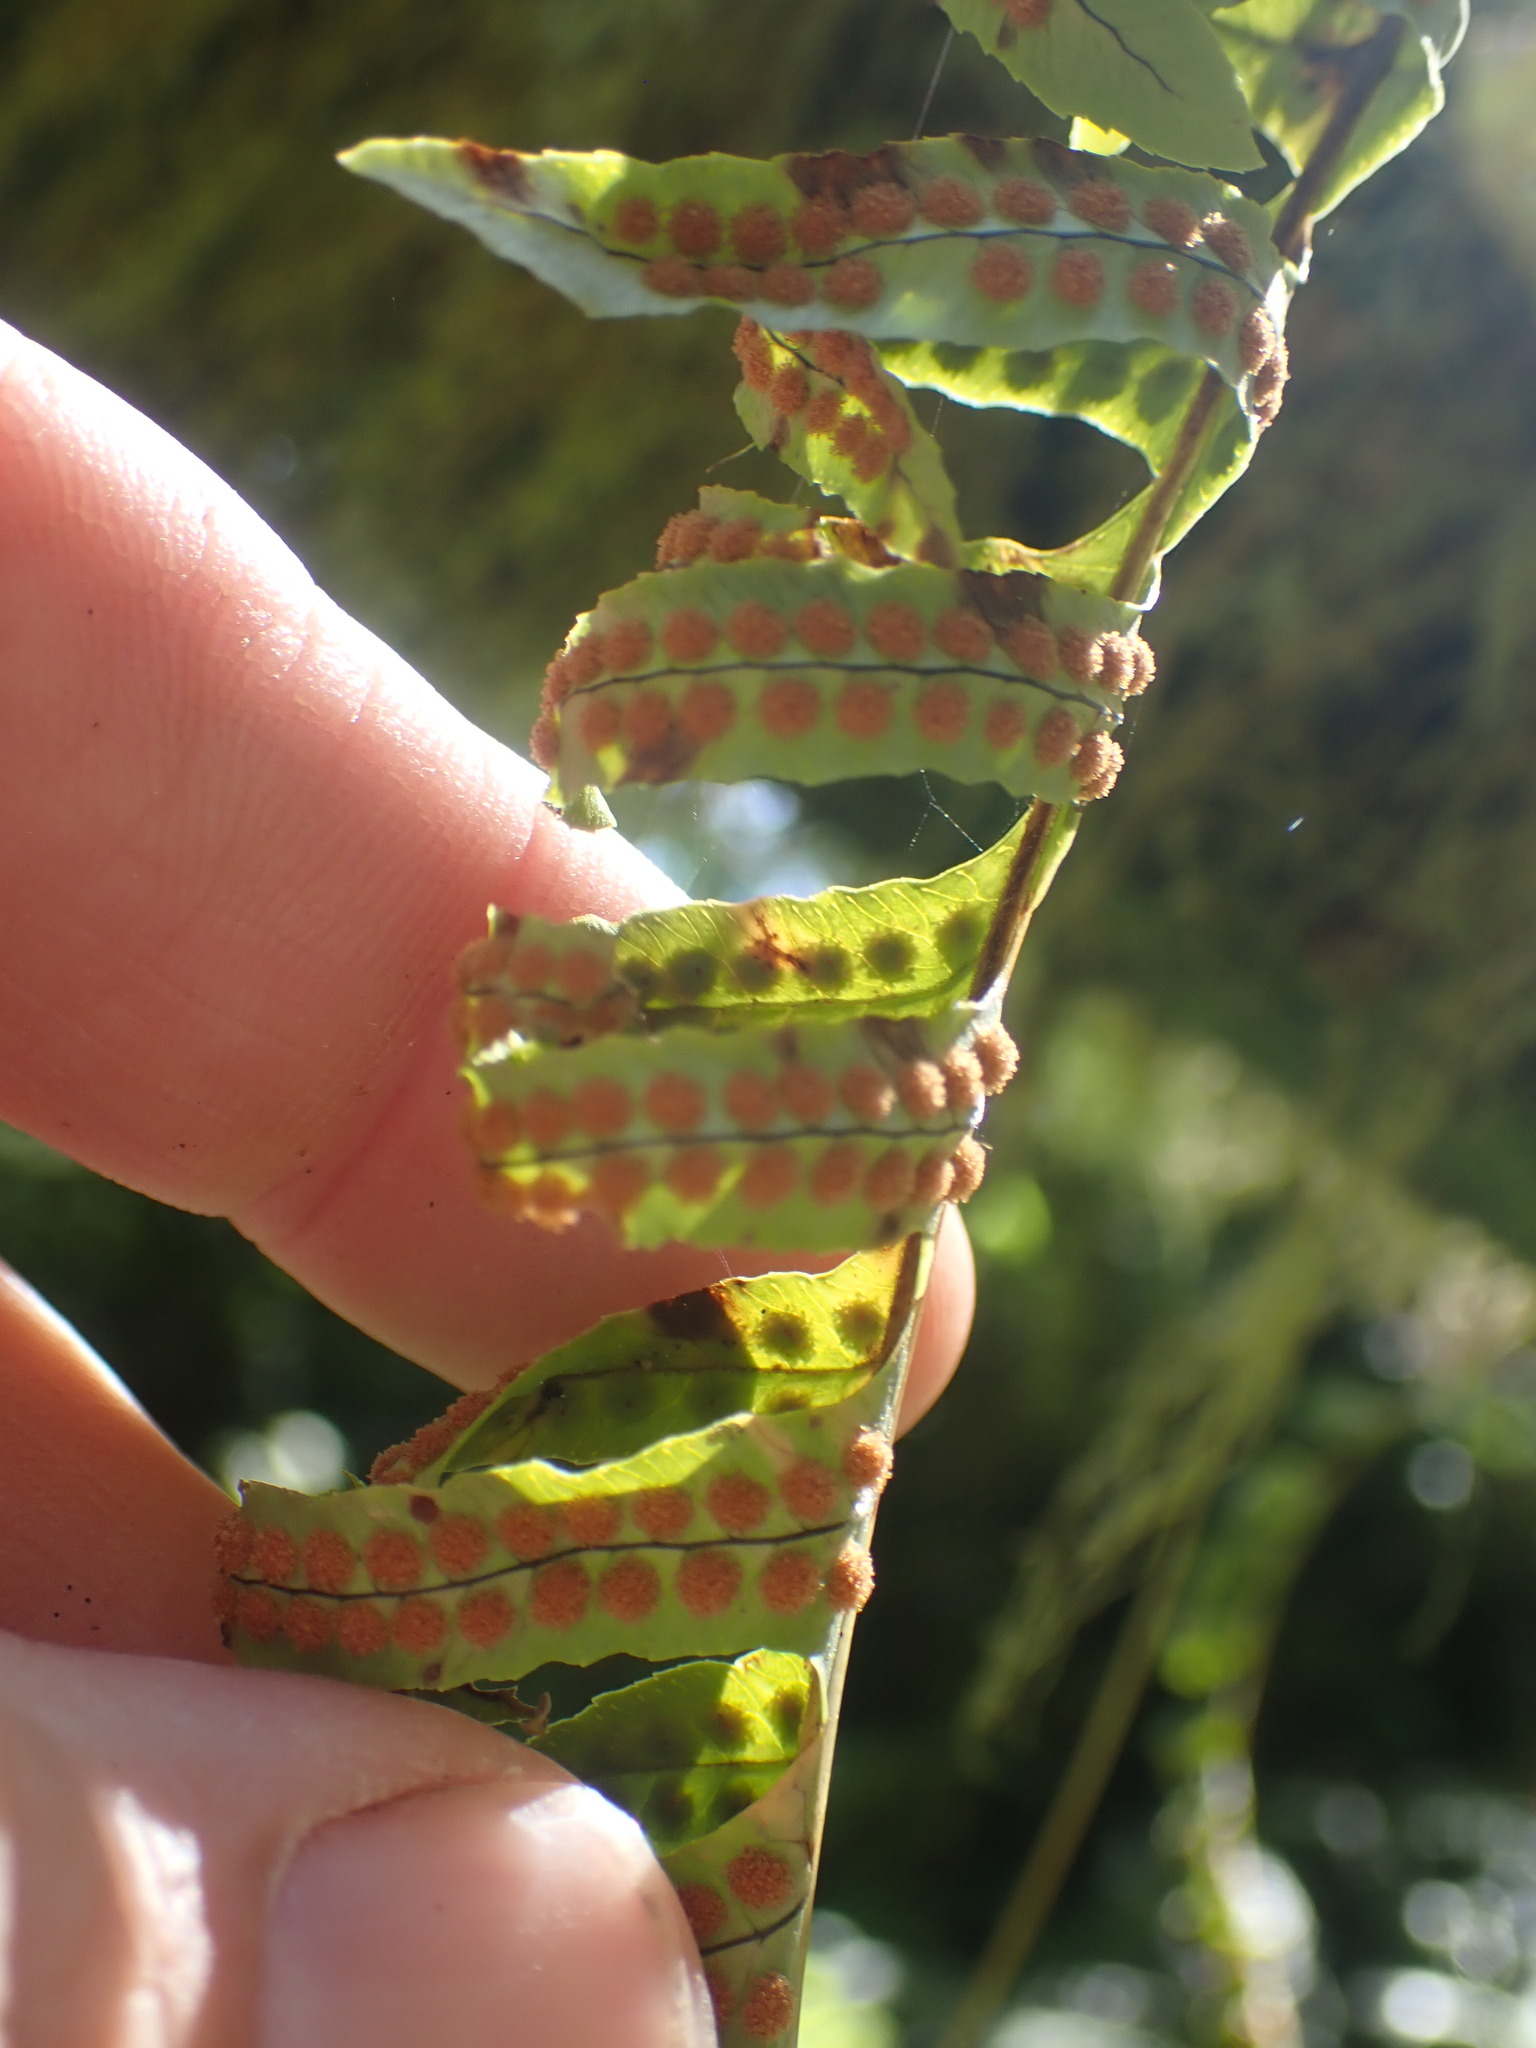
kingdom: Plantae
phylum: Tracheophyta
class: Polypodiopsida
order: Polypodiales
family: Polypodiaceae
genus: Polypodium
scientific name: Polypodium glycyrrhiza
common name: Licorice fern
